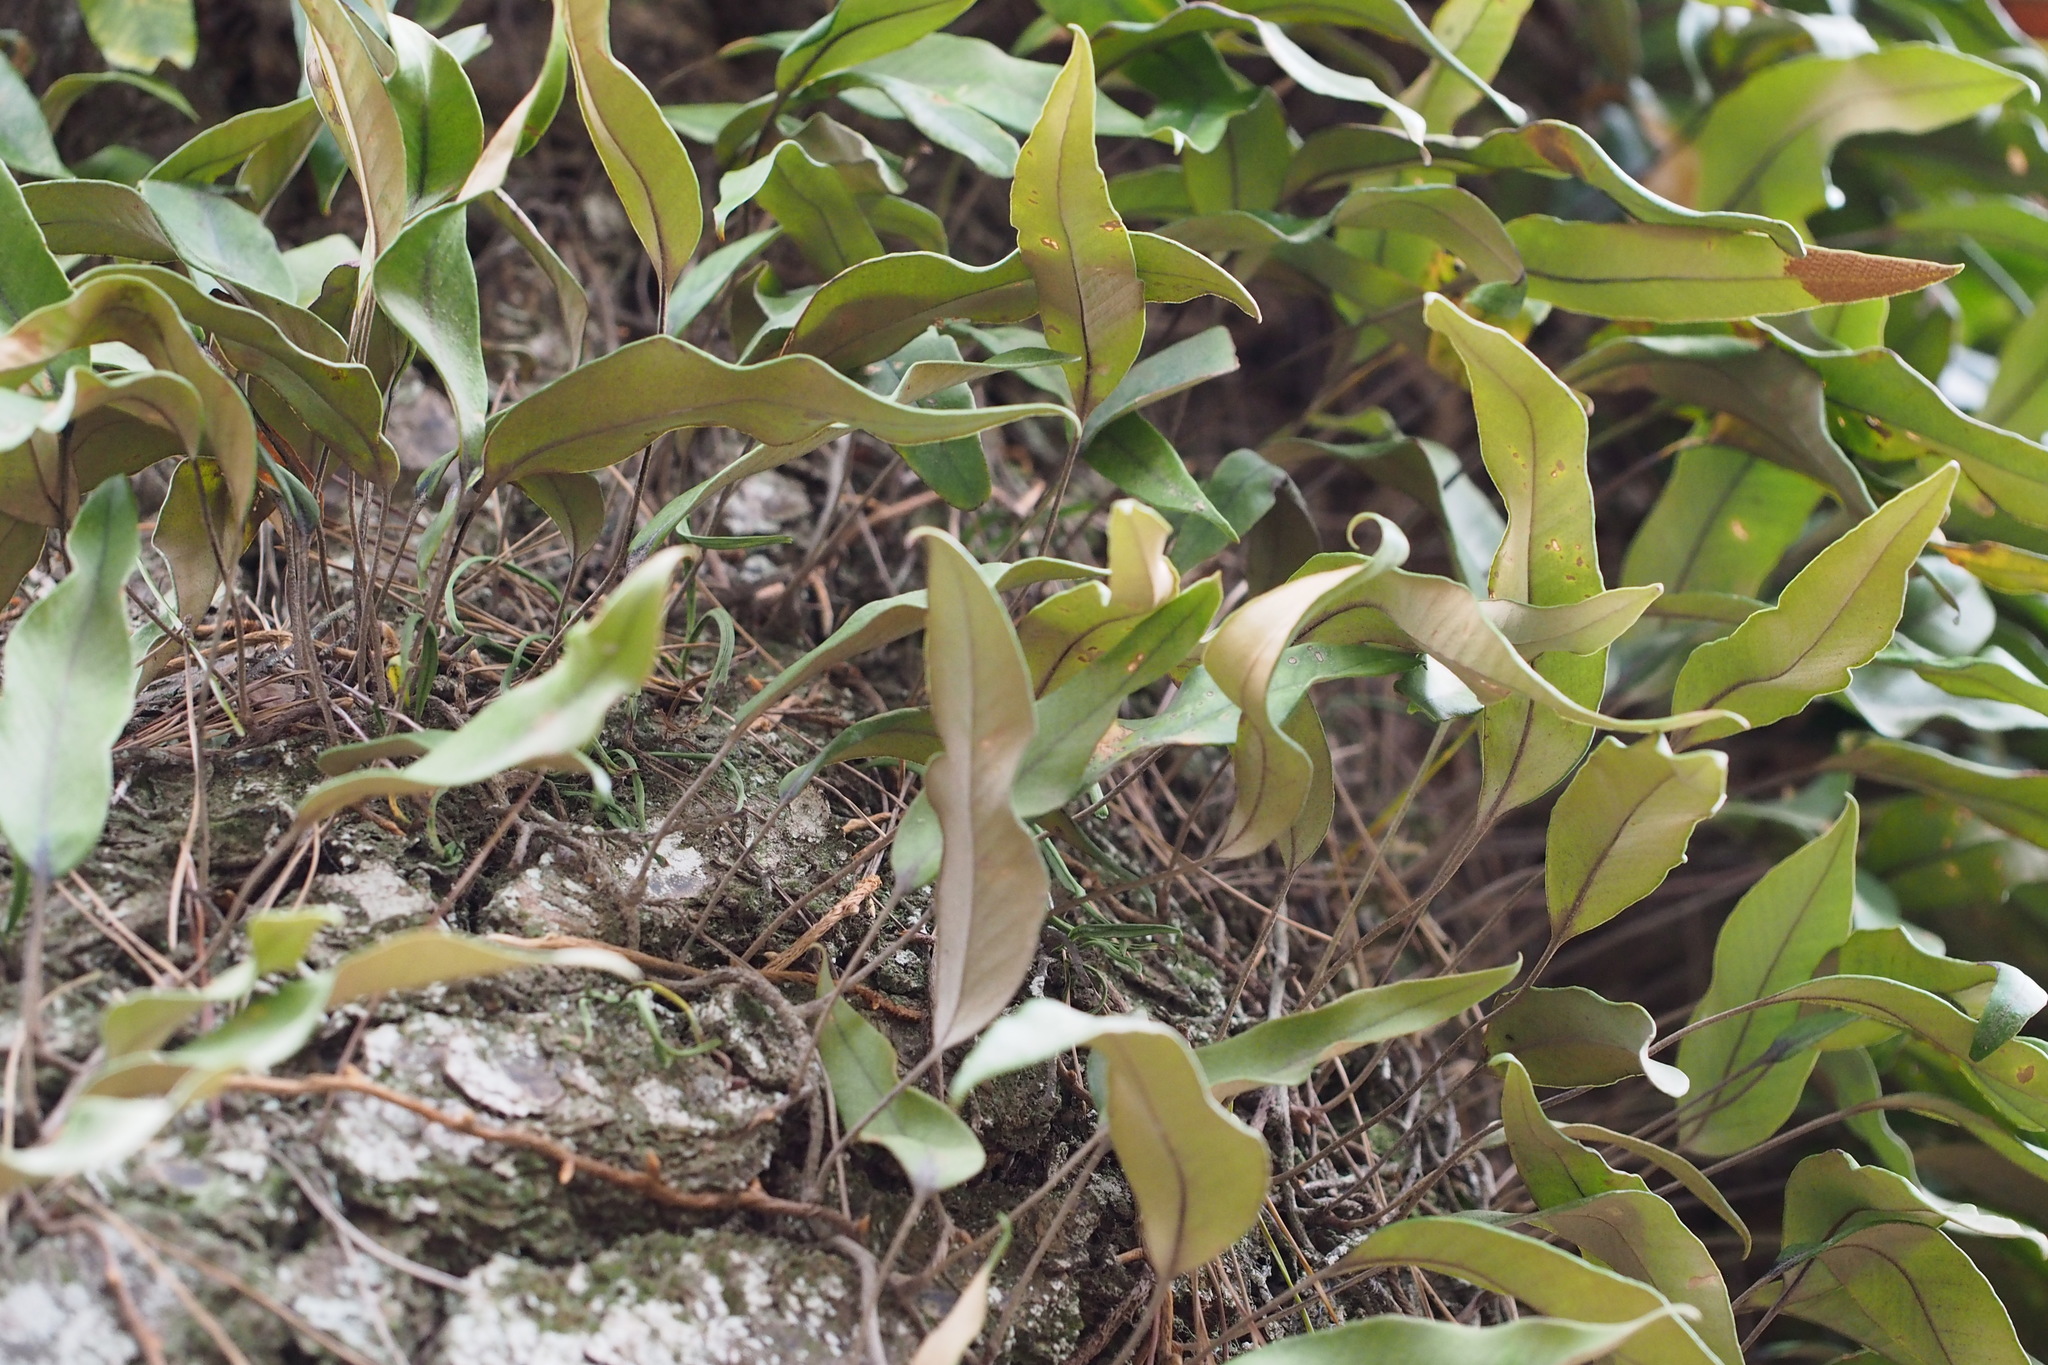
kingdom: Plantae
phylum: Tracheophyta
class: Polypodiopsida
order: Polypodiales
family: Polypodiaceae
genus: Pyrrosia
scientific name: Pyrrosia lingua
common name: Felt fern
